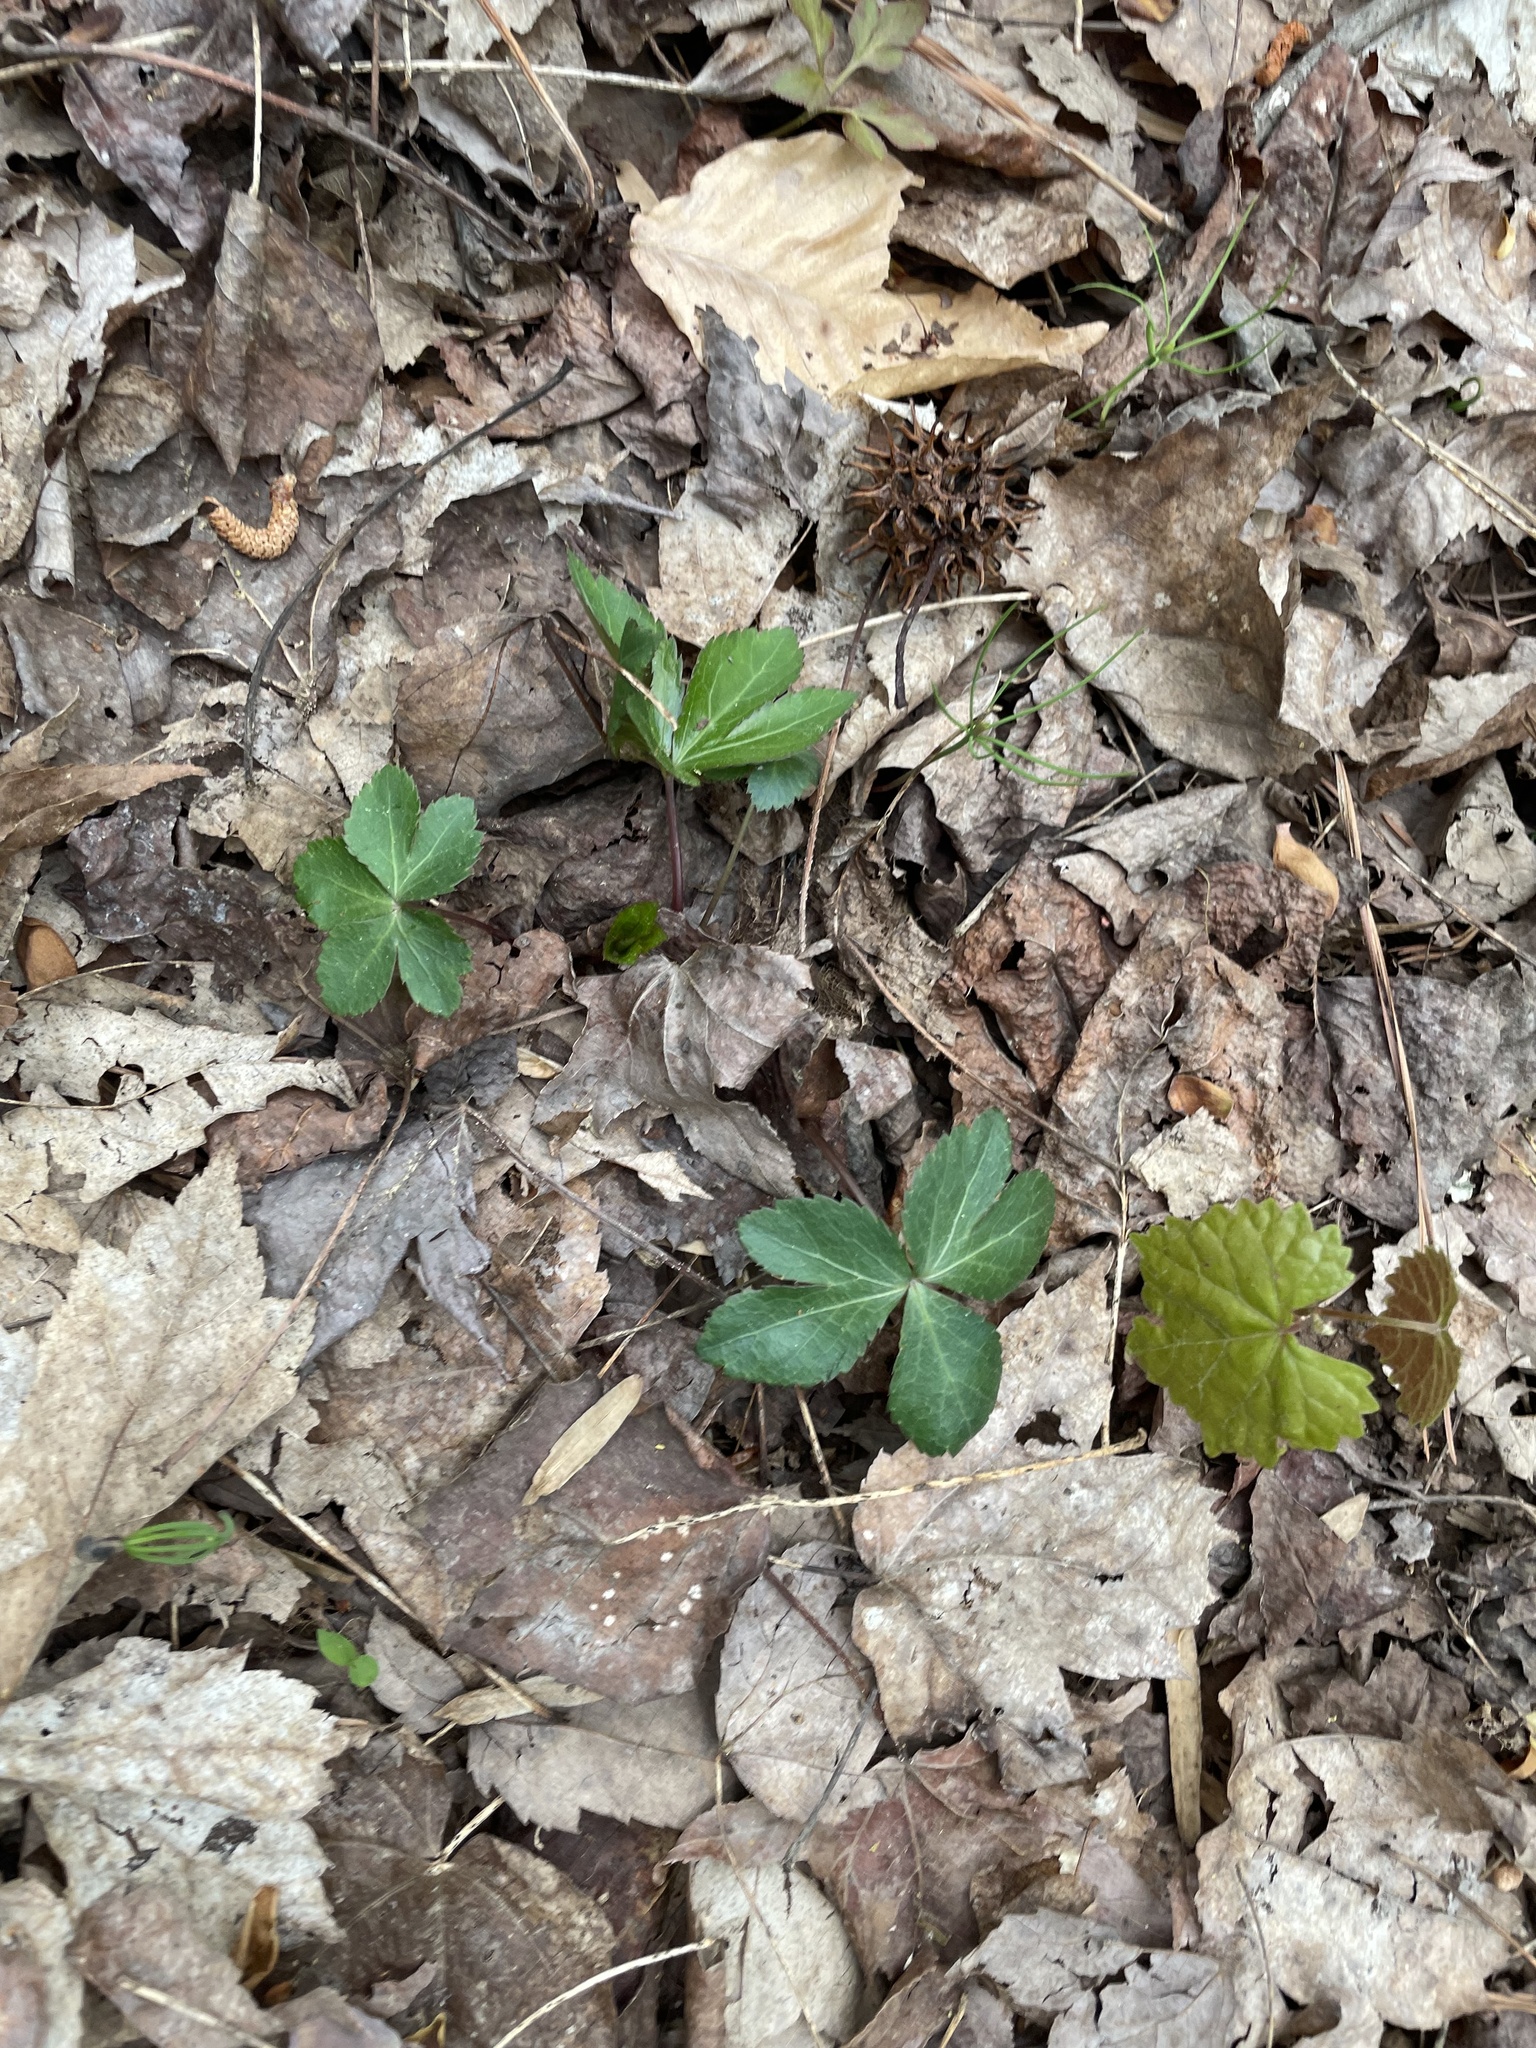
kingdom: Plantae
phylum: Tracheophyta
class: Magnoliopsida
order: Apiales
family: Apiaceae
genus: Sanicula
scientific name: Sanicula smallii
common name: Small's black snakeroot
